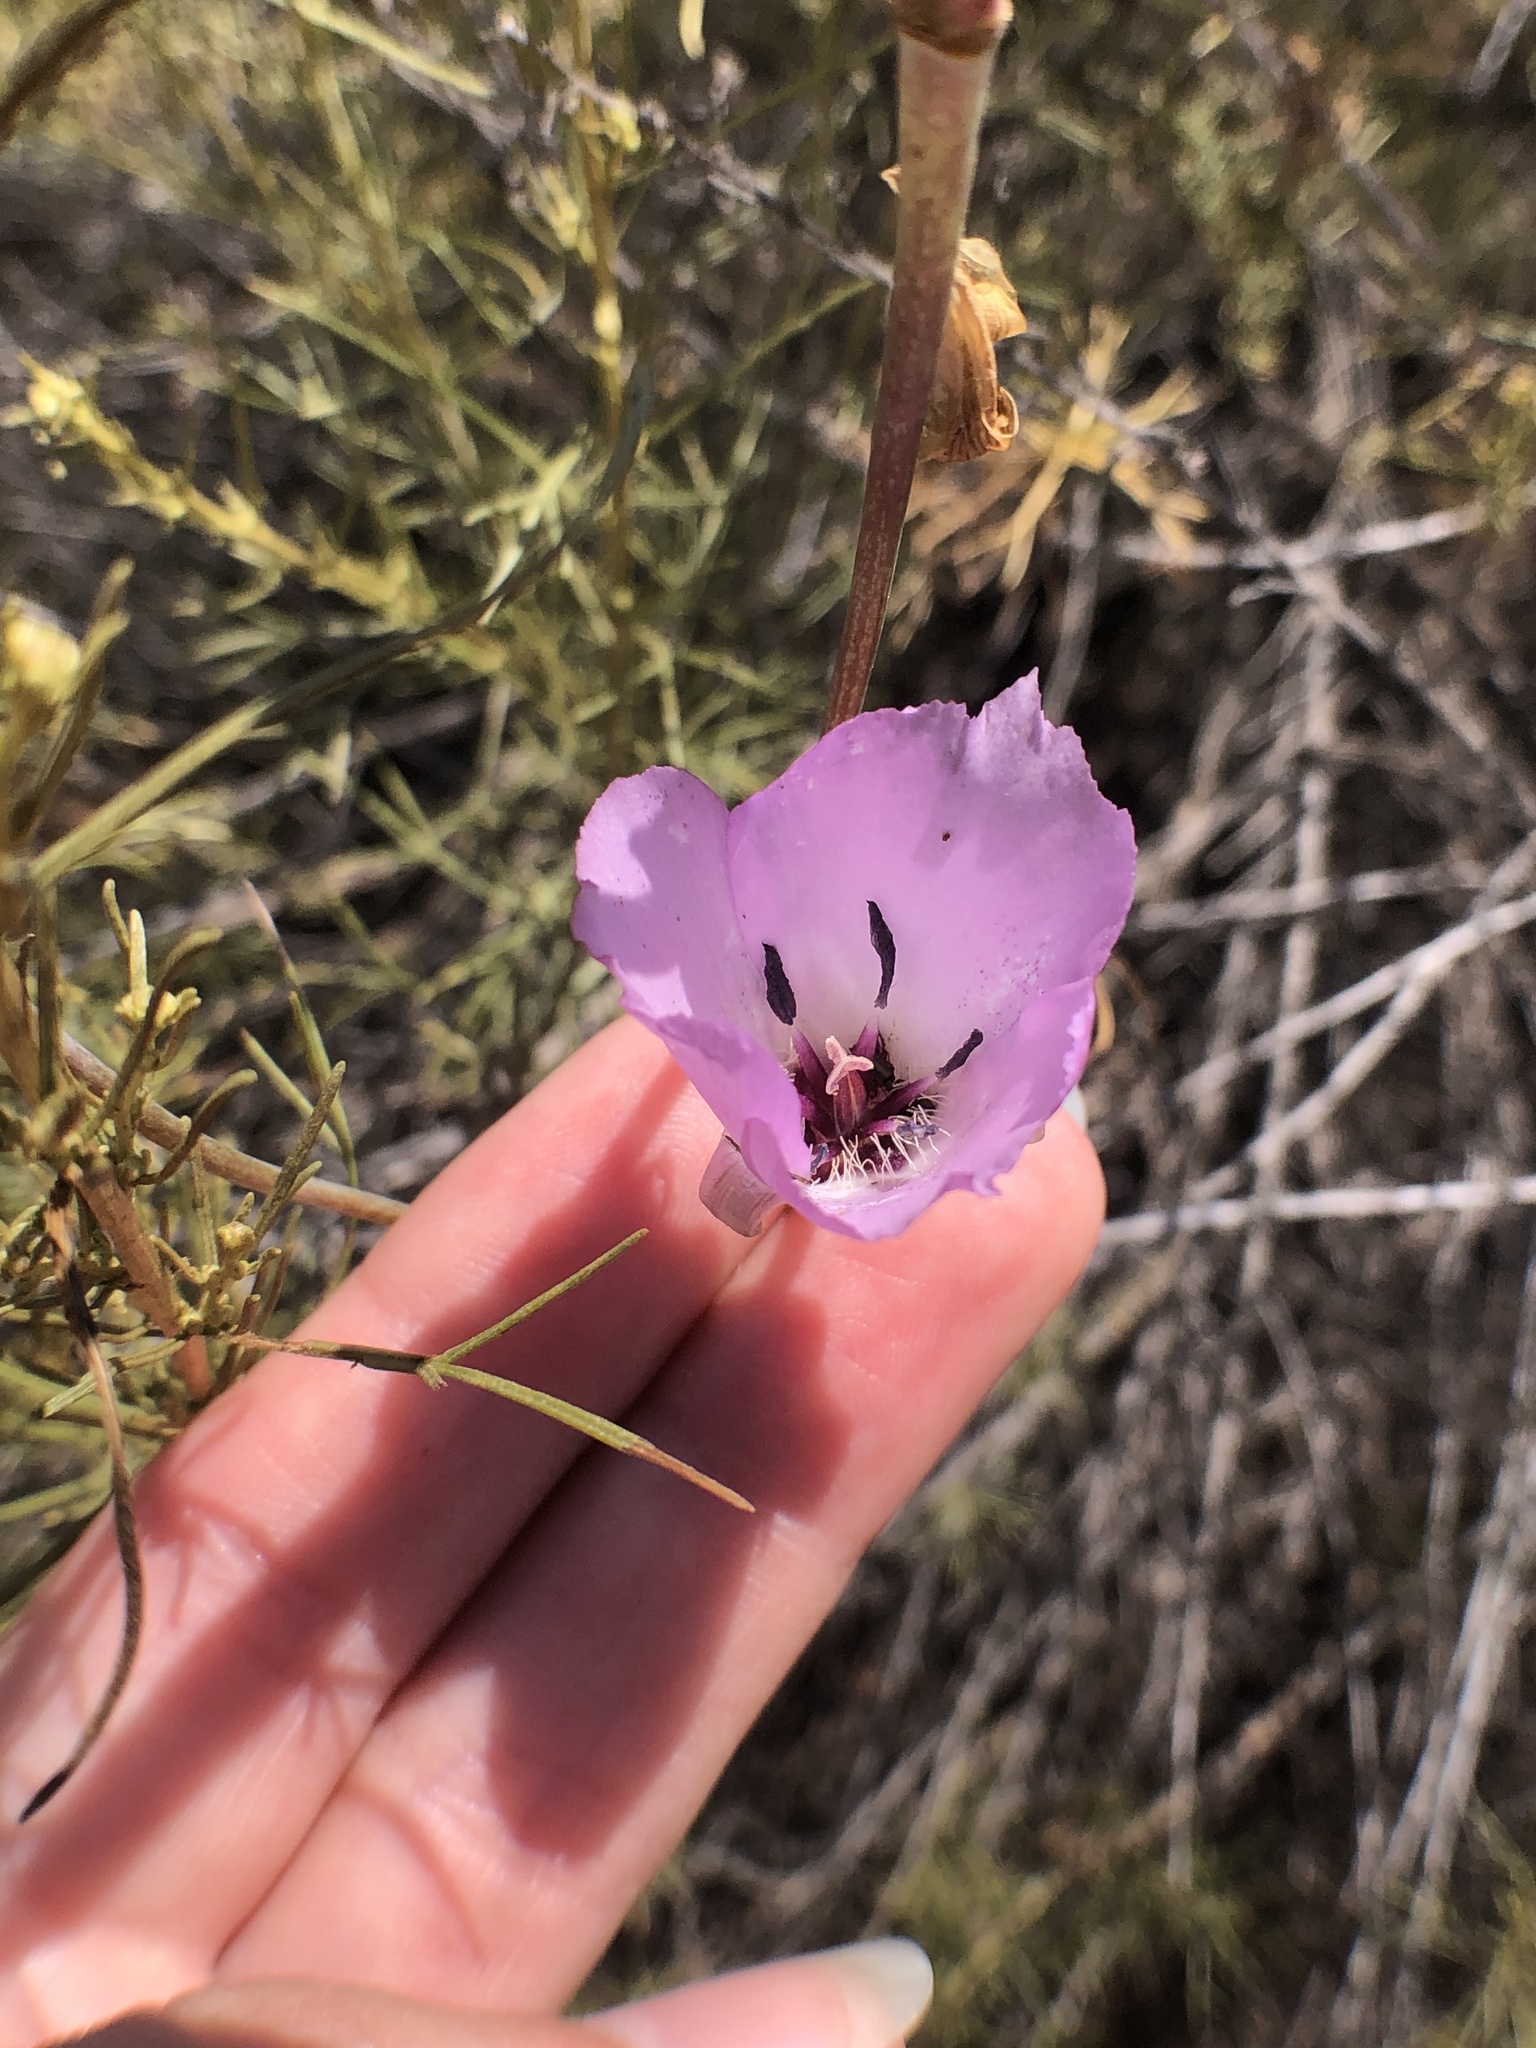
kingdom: Plantae
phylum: Tracheophyta
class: Liliopsida
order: Liliales
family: Liliaceae
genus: Calochortus
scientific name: Calochortus splendens
